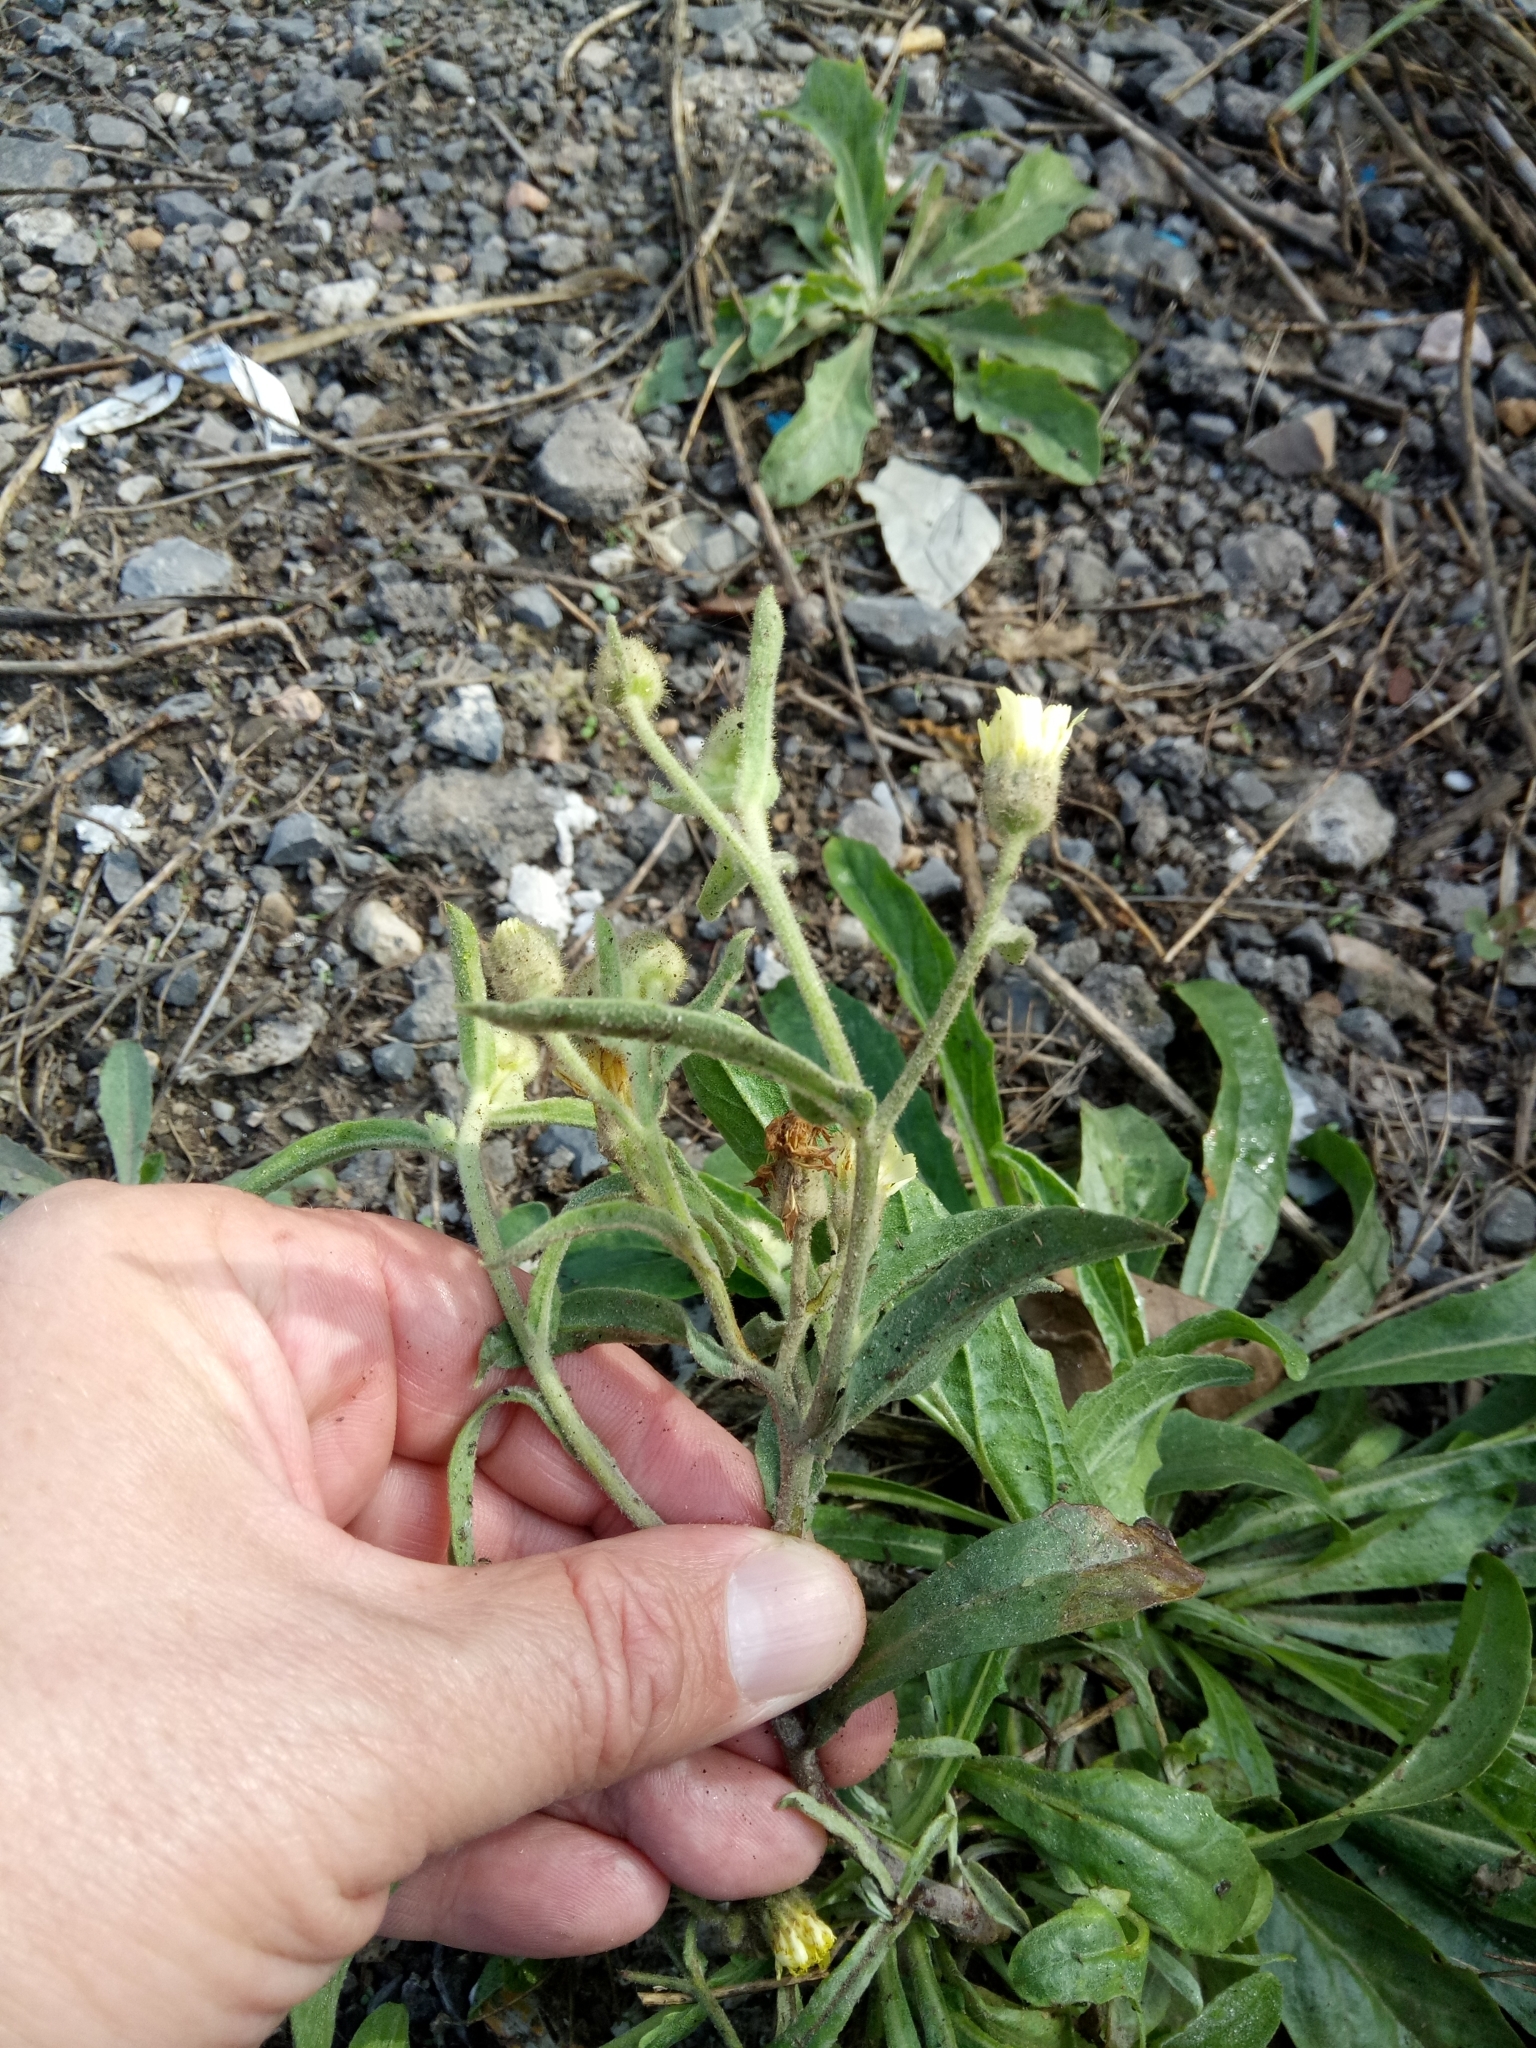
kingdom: Plantae
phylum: Tracheophyta
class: Magnoliopsida
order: Asterales
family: Asteraceae
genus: Andryala
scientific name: Andryala integrifolia
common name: Common andryala
